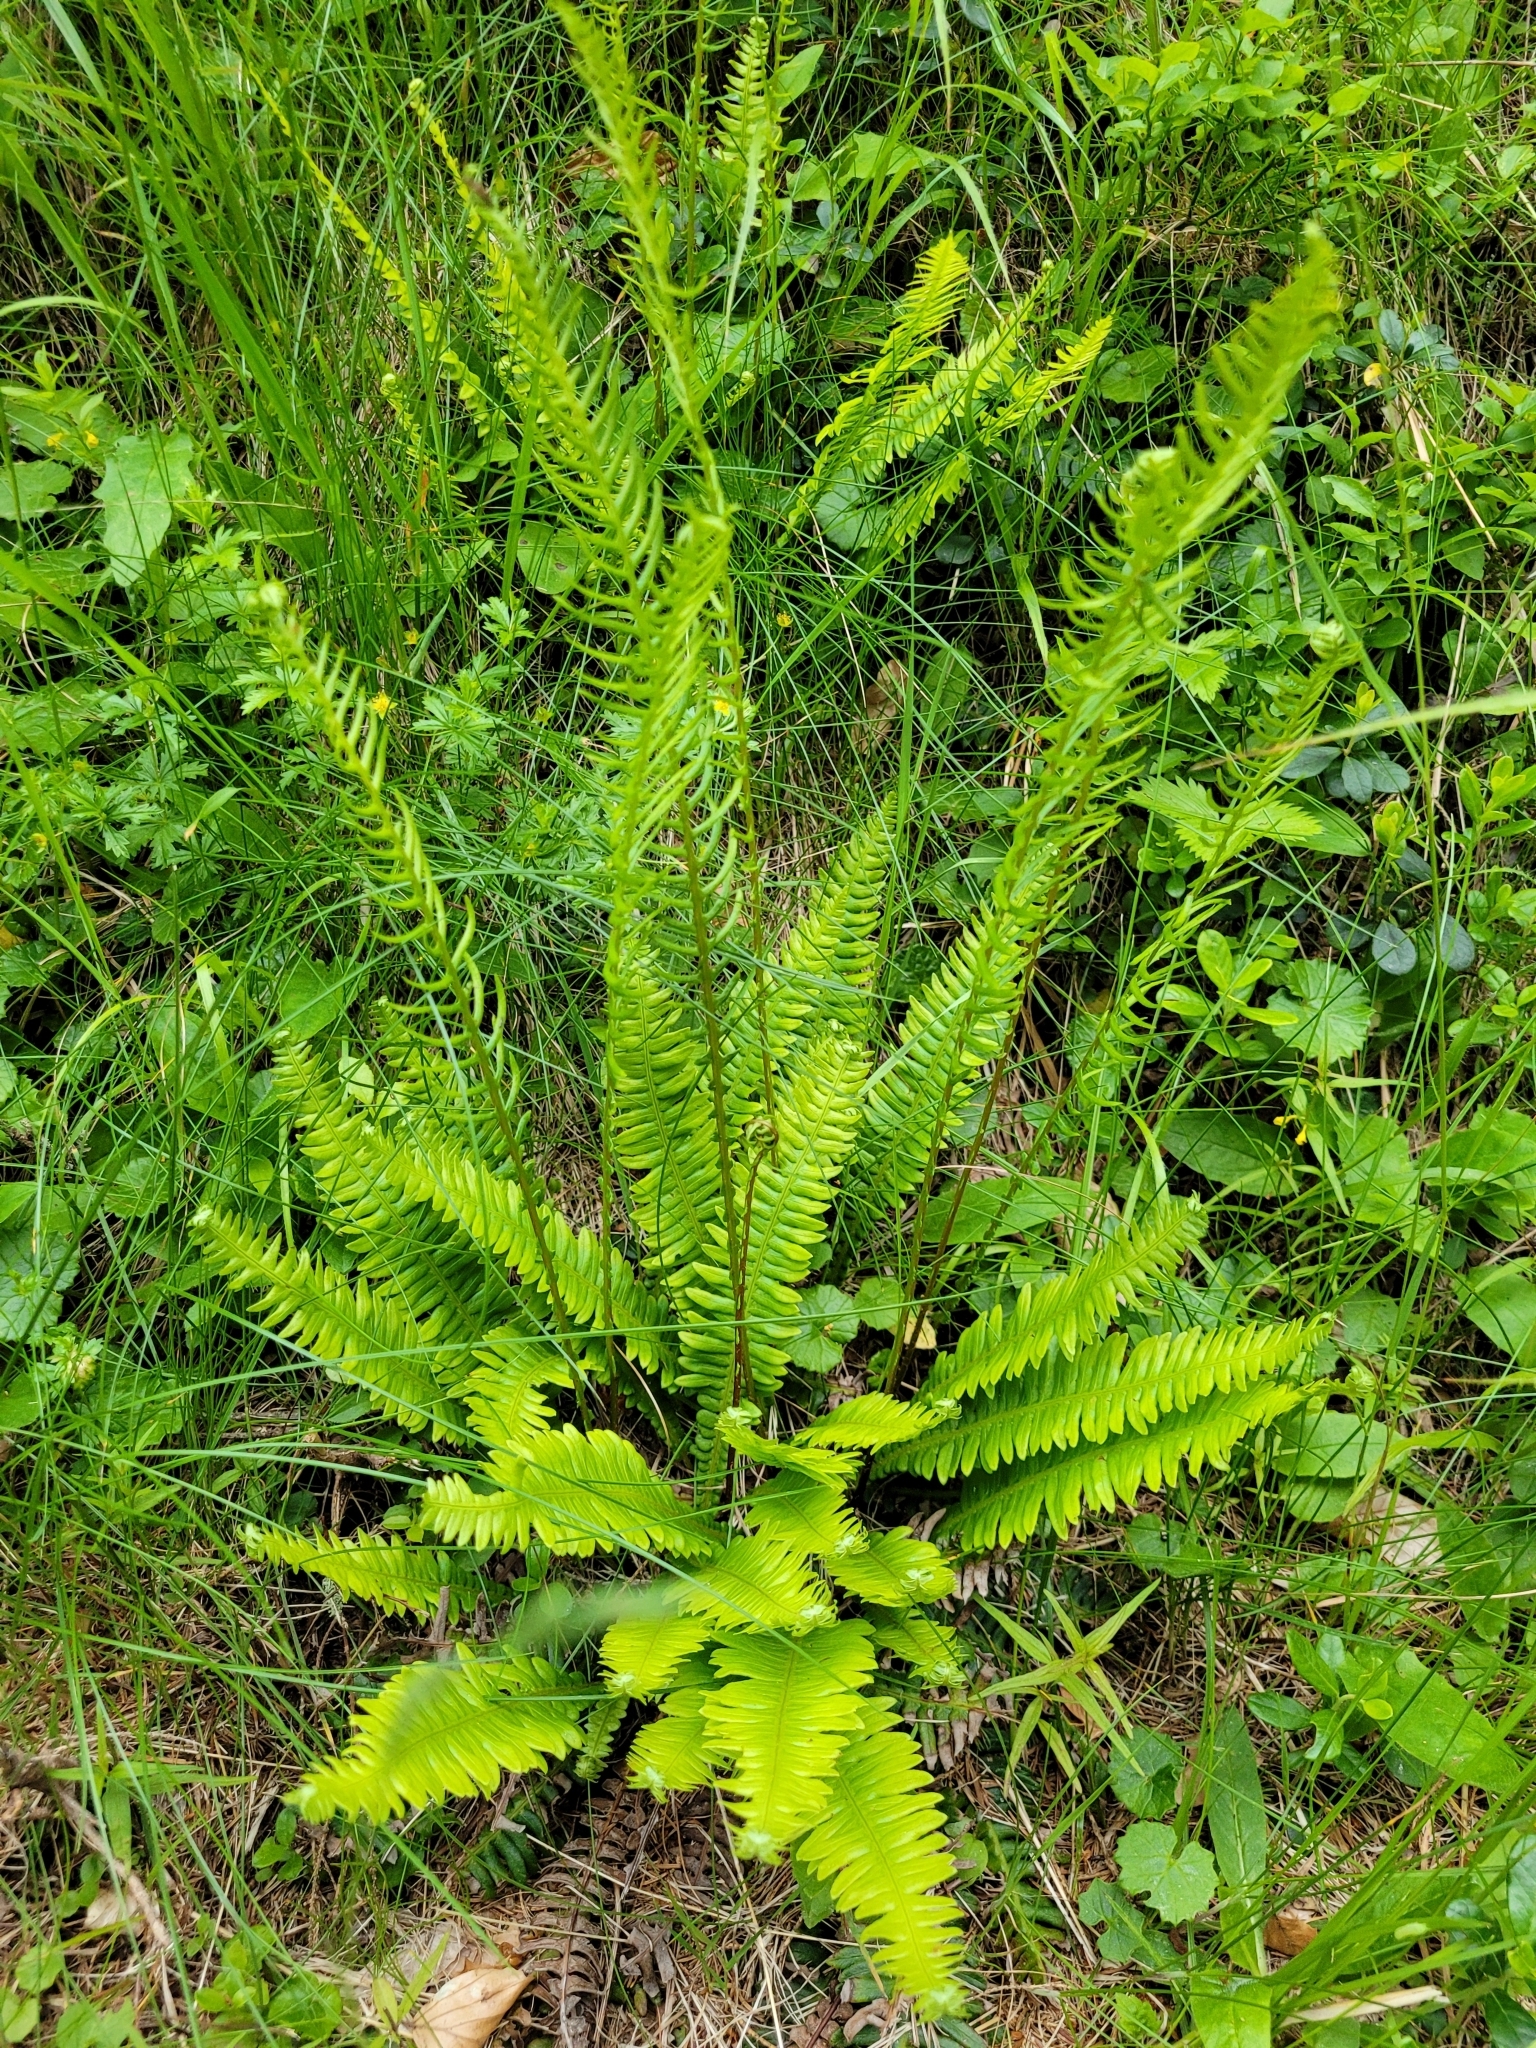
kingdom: Plantae
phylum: Tracheophyta
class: Polypodiopsida
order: Polypodiales
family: Blechnaceae
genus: Struthiopteris
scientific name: Struthiopteris spicant
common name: Deer fern
